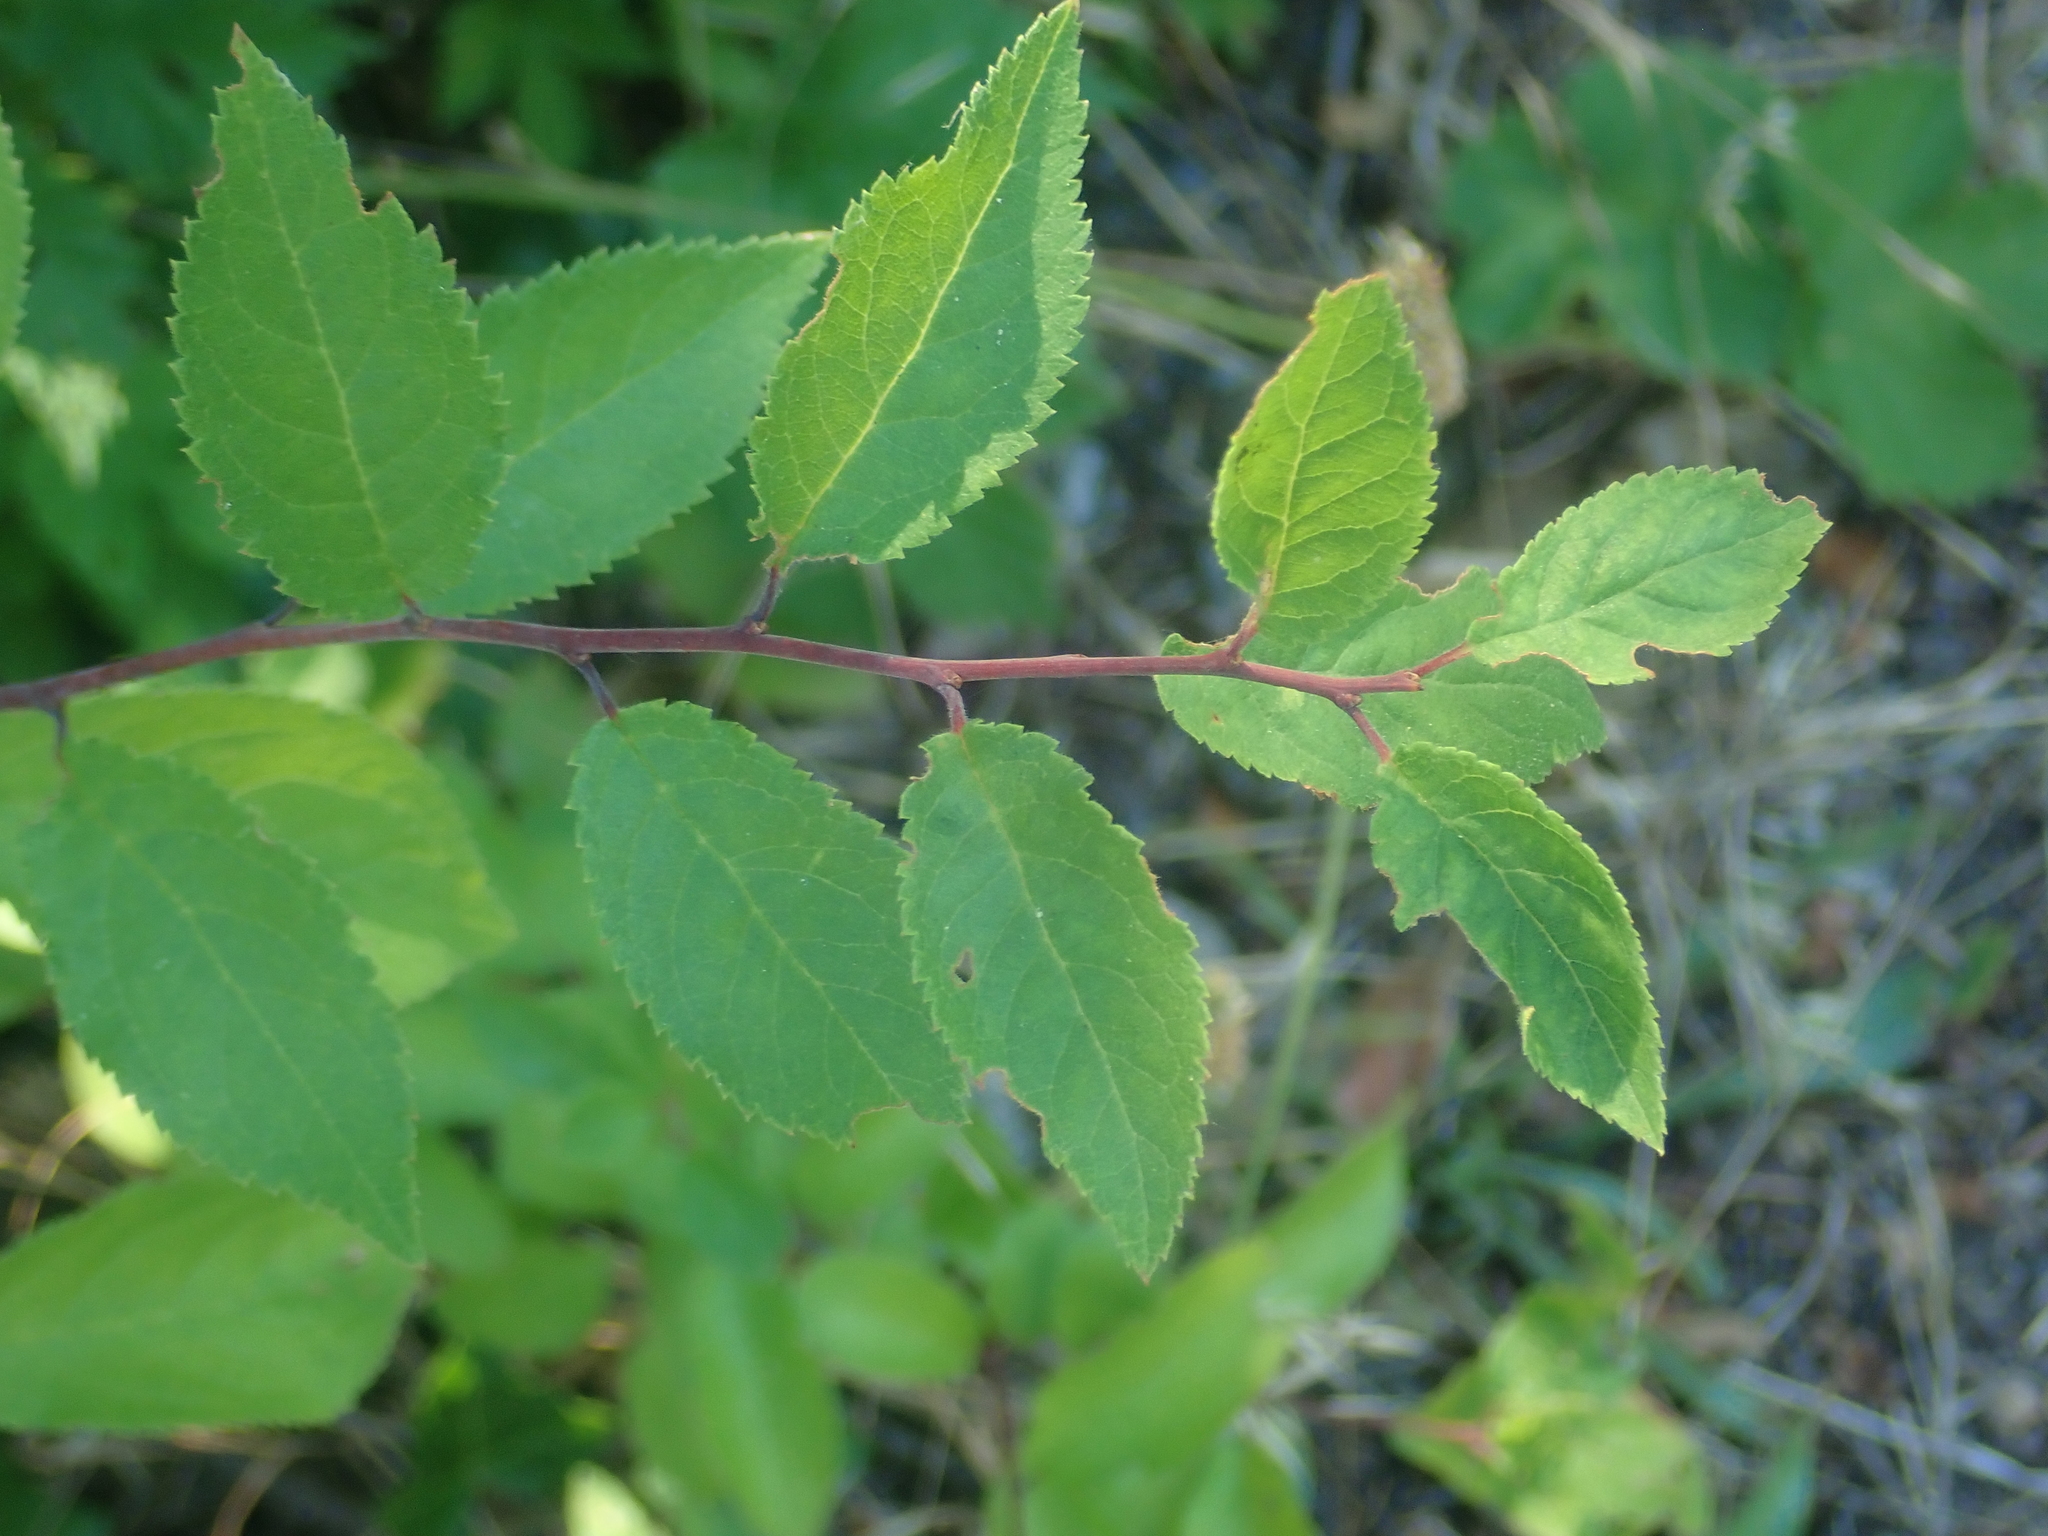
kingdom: Plantae
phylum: Tracheophyta
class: Magnoliopsida
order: Rosales
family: Rosaceae
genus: Prunus
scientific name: Prunus spinosa
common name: Blackthorn
